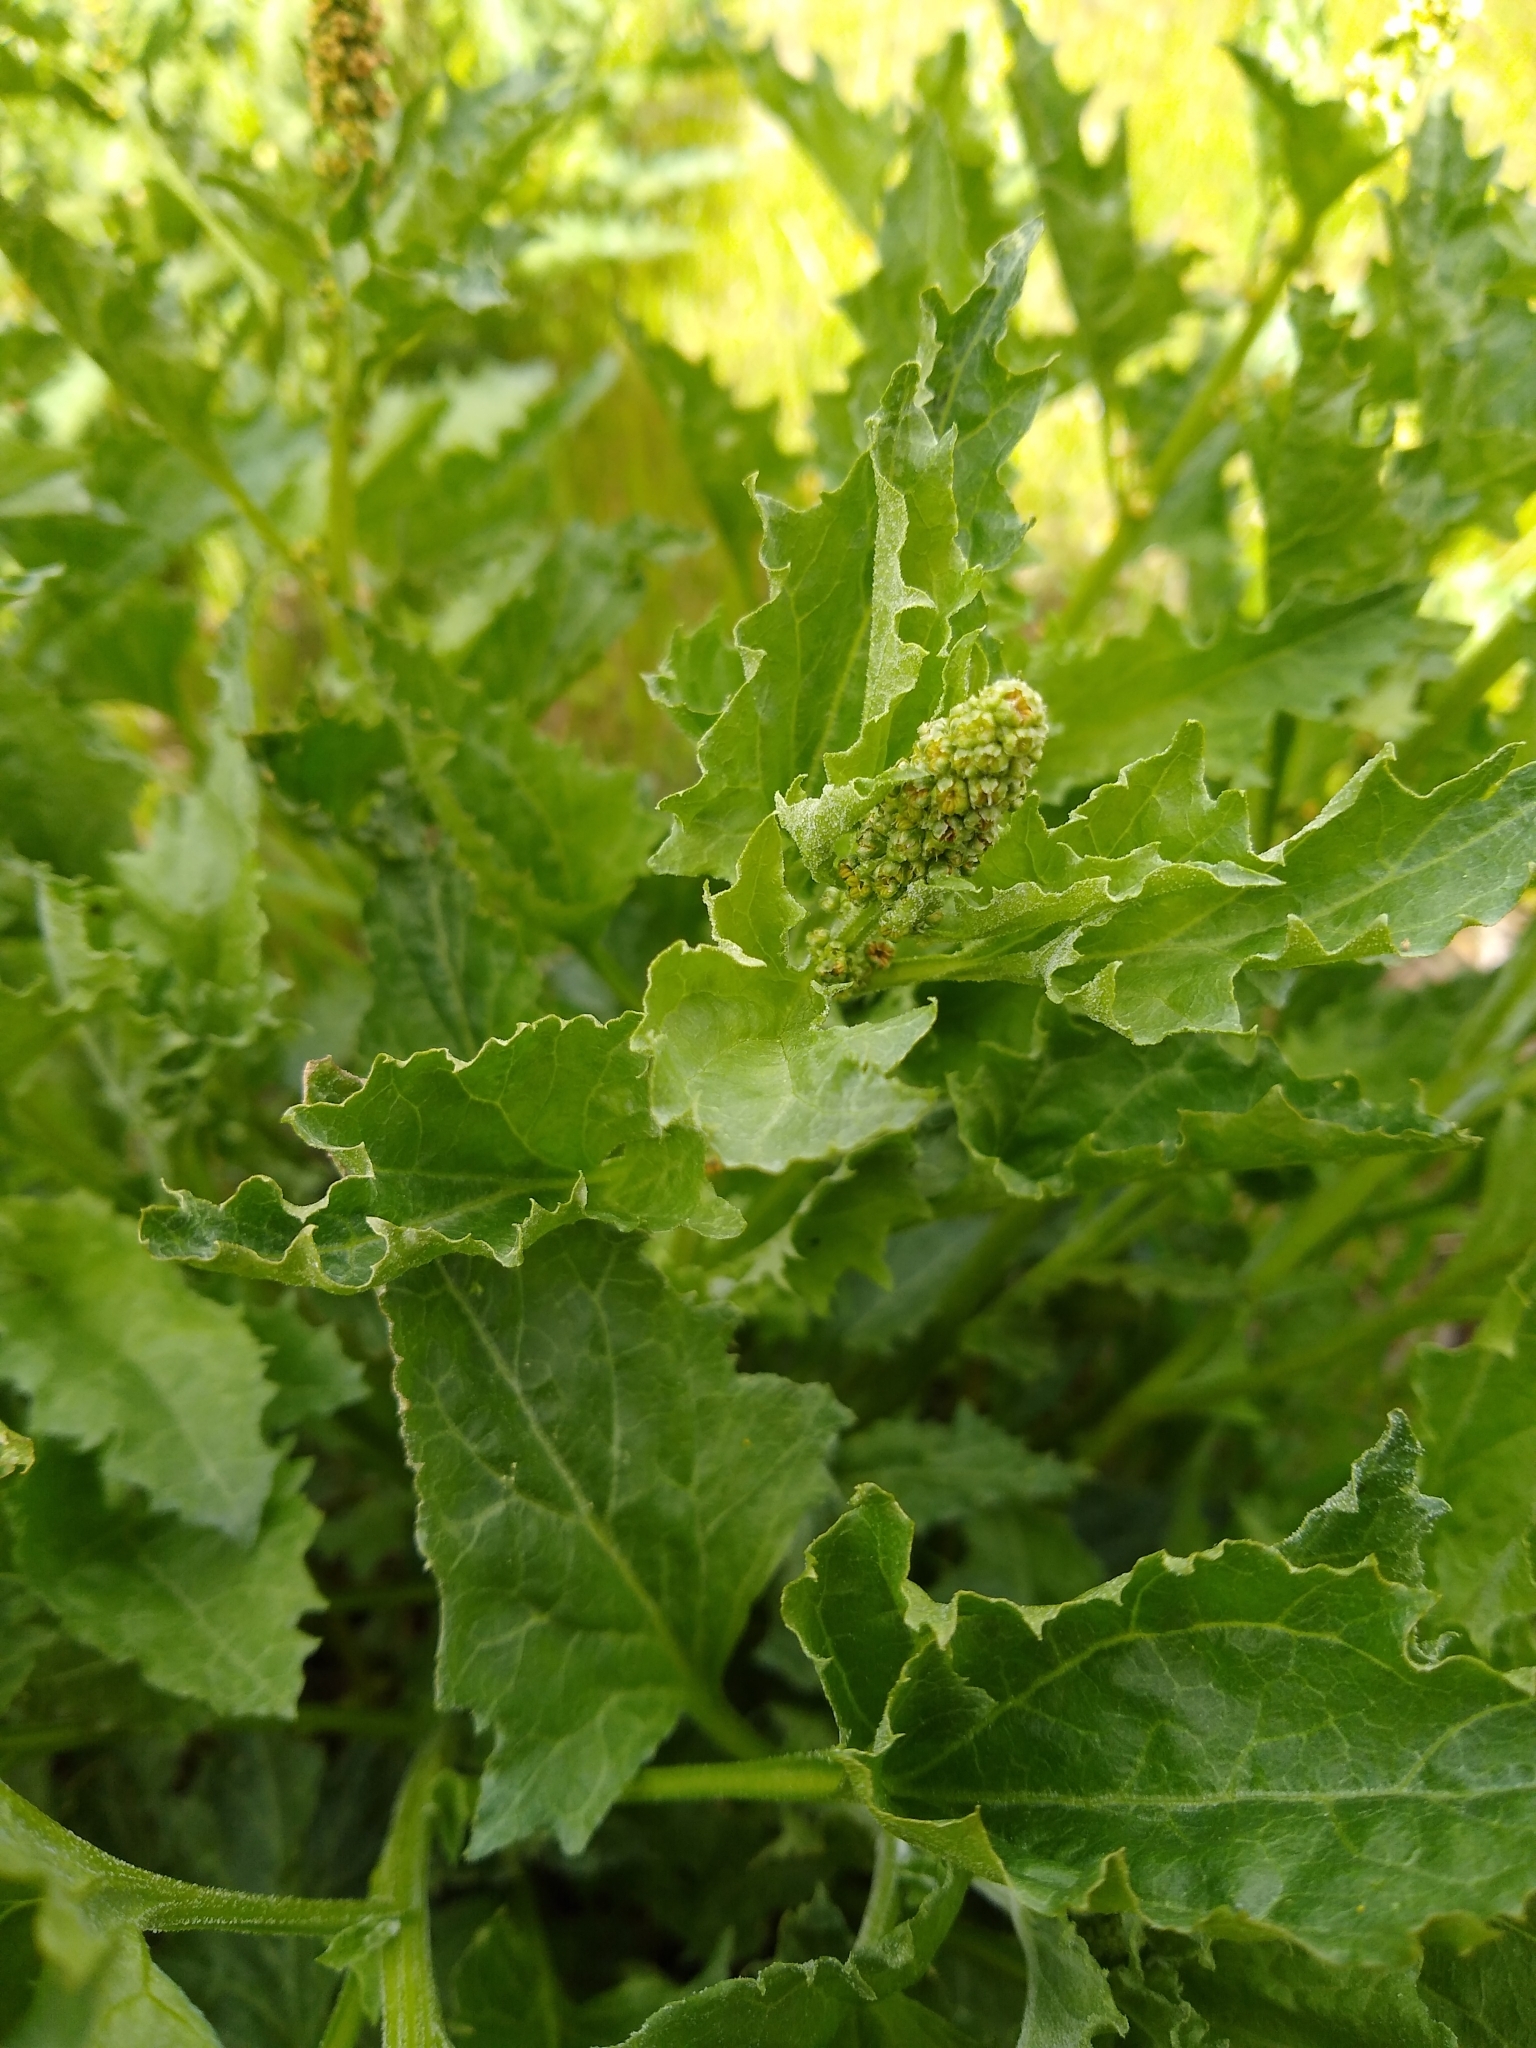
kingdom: Plantae
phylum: Tracheophyta
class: Magnoliopsida
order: Caryophyllales
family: Amaranthaceae
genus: Blitum
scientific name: Blitum californicum
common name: California goosefoot
